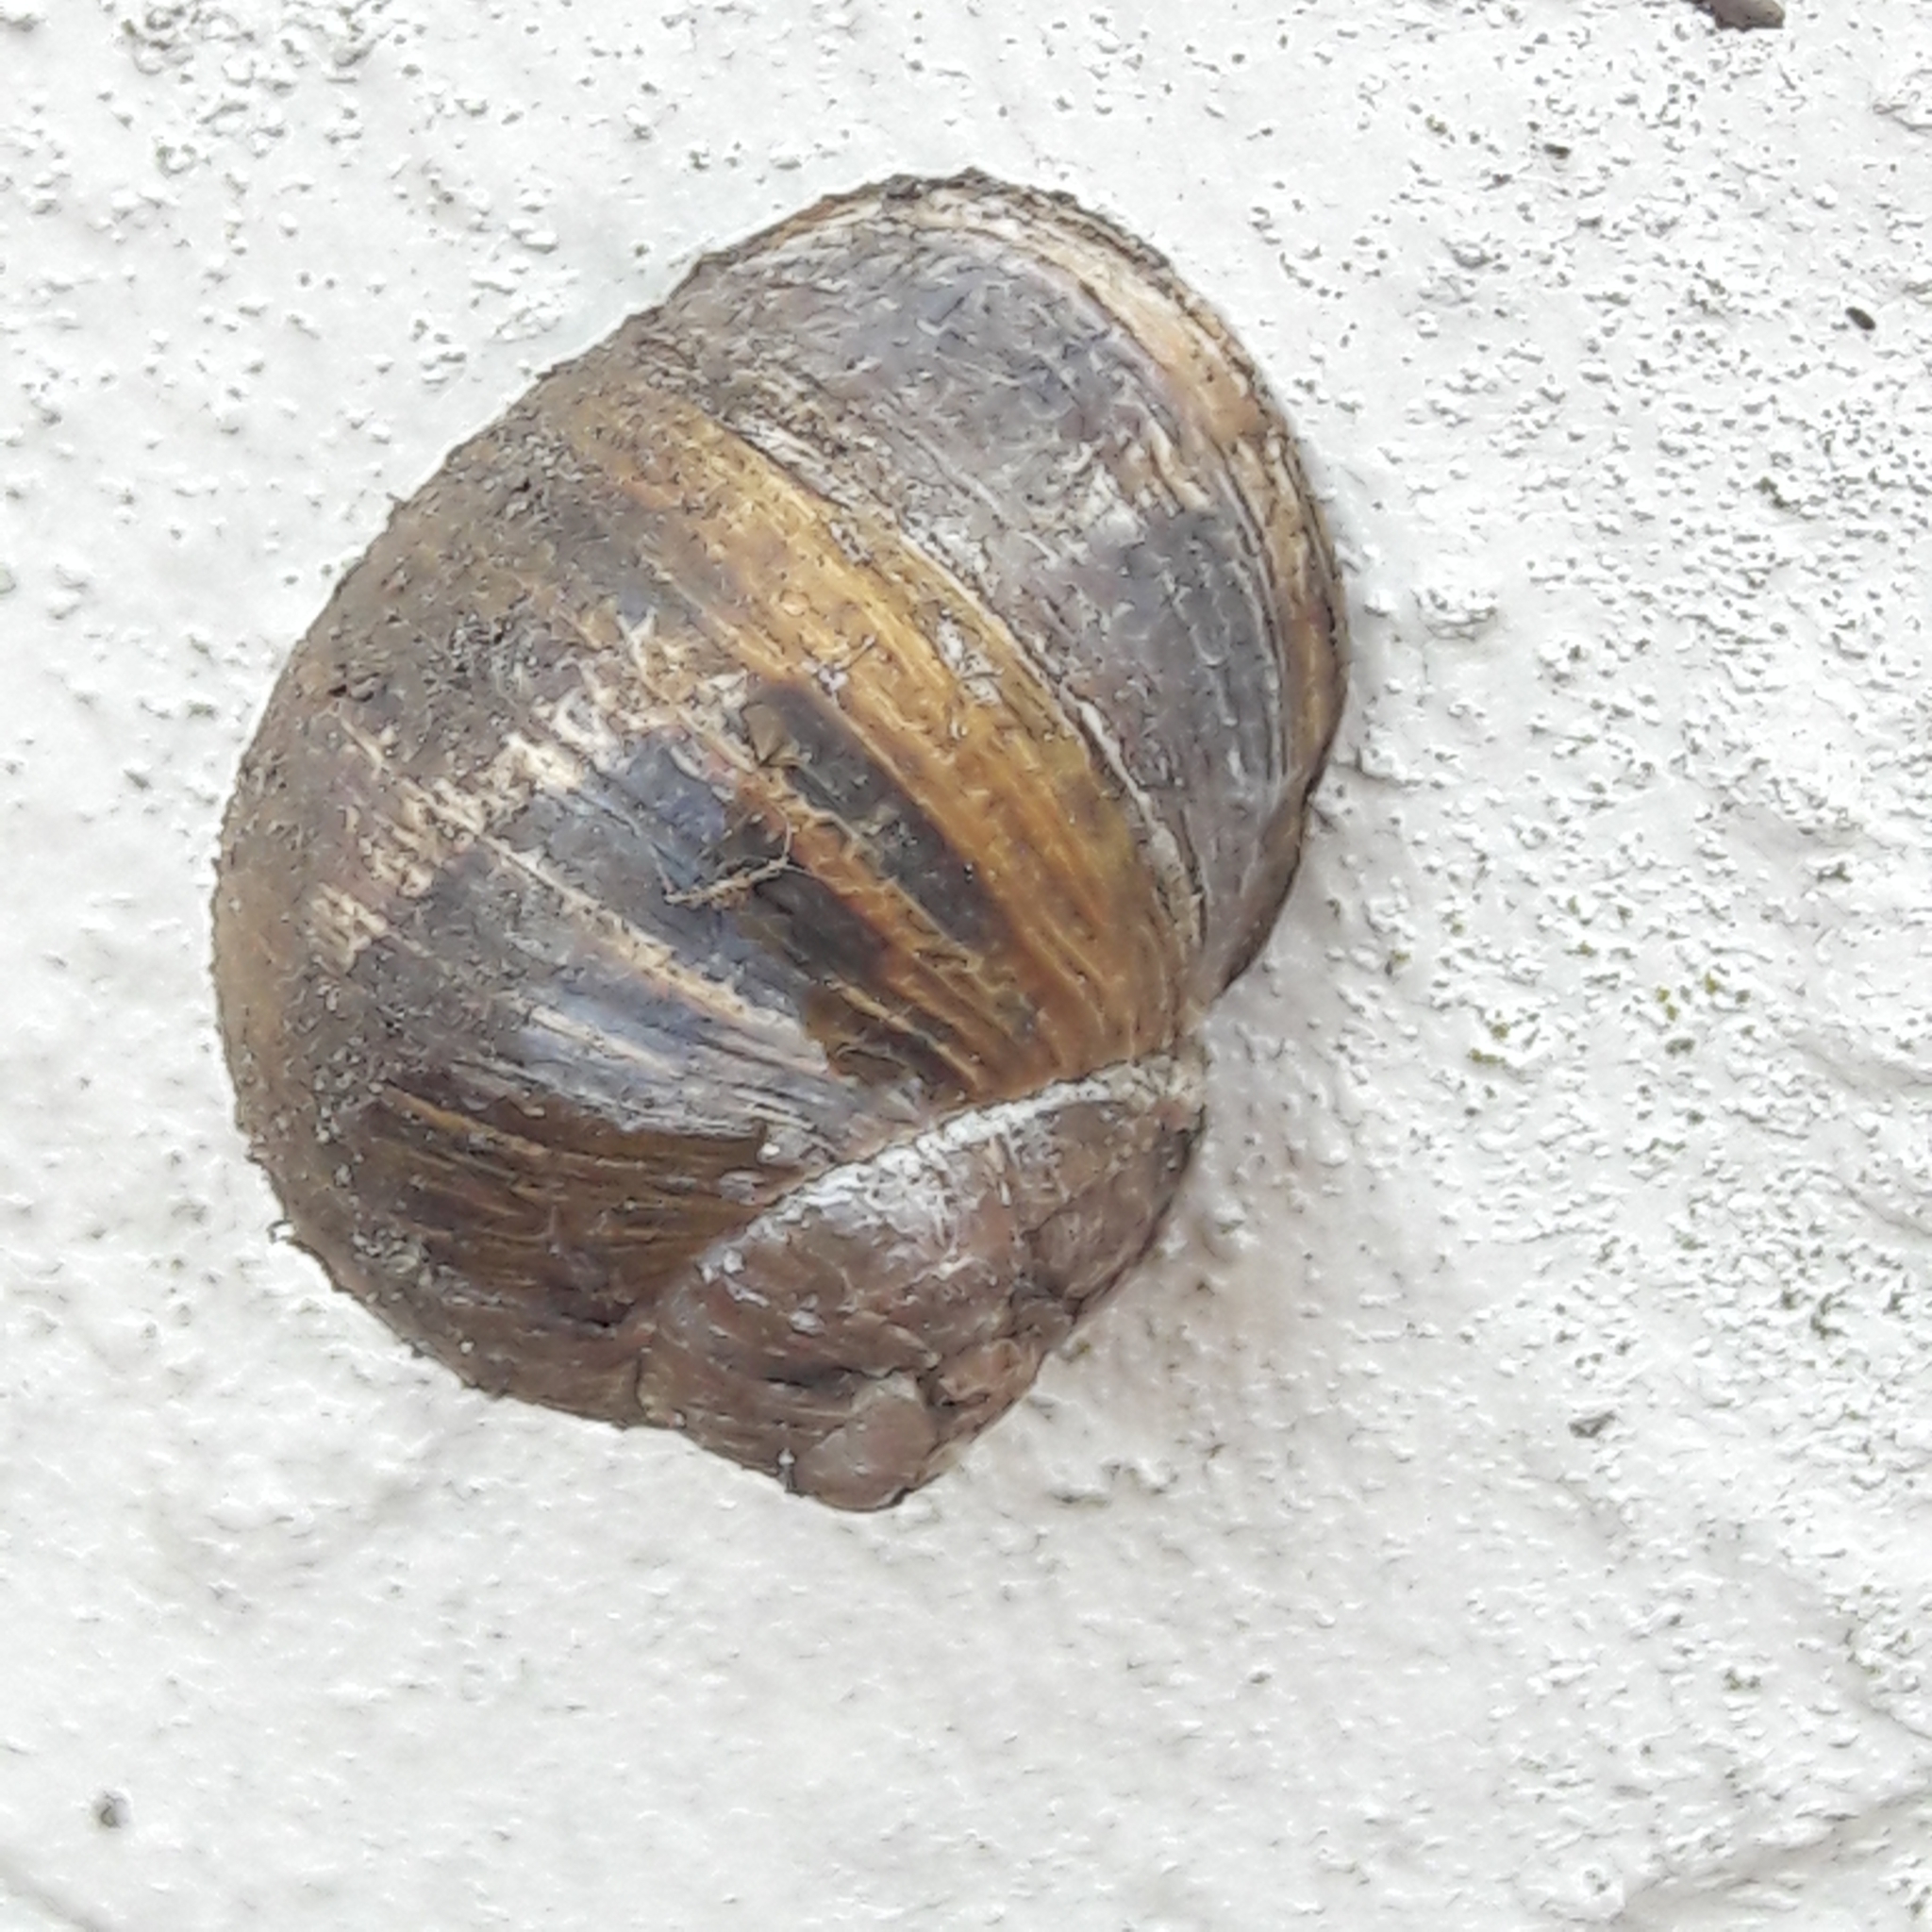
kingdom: Animalia
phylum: Mollusca
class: Gastropoda
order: Stylommatophora
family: Helicidae
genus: Cornu
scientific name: Cornu aspersum
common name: Brown garden snail
